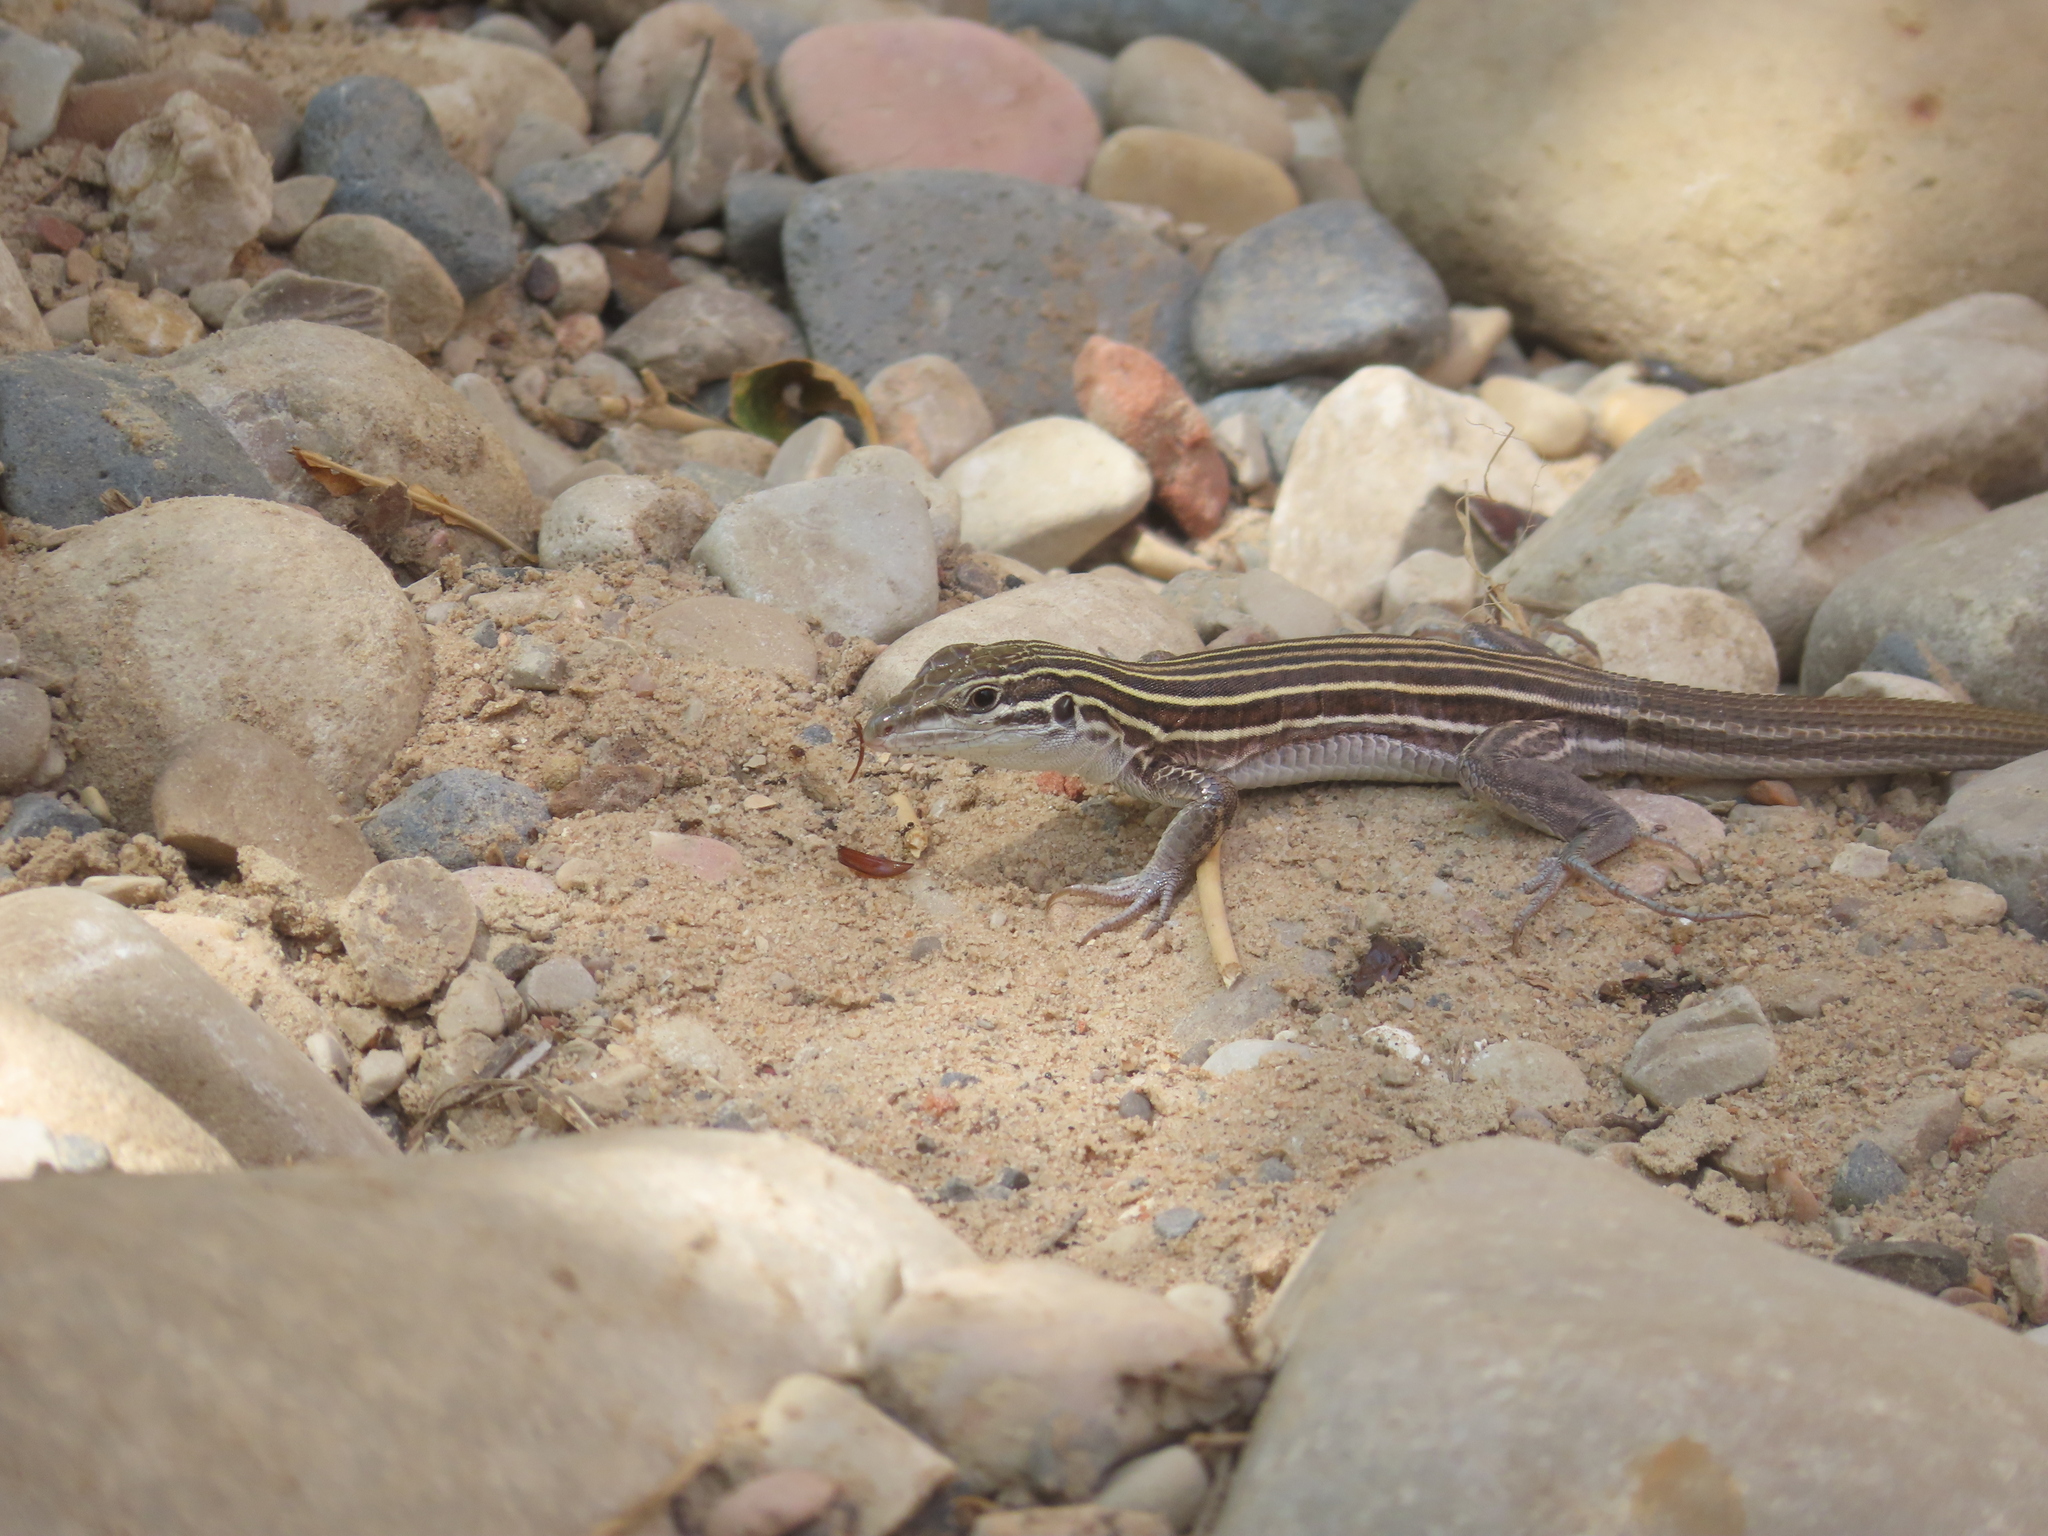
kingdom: Animalia
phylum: Chordata
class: Squamata
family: Teiidae
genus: Aspidoscelis
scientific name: Aspidoscelis velox
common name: Plateau striped whiptail
